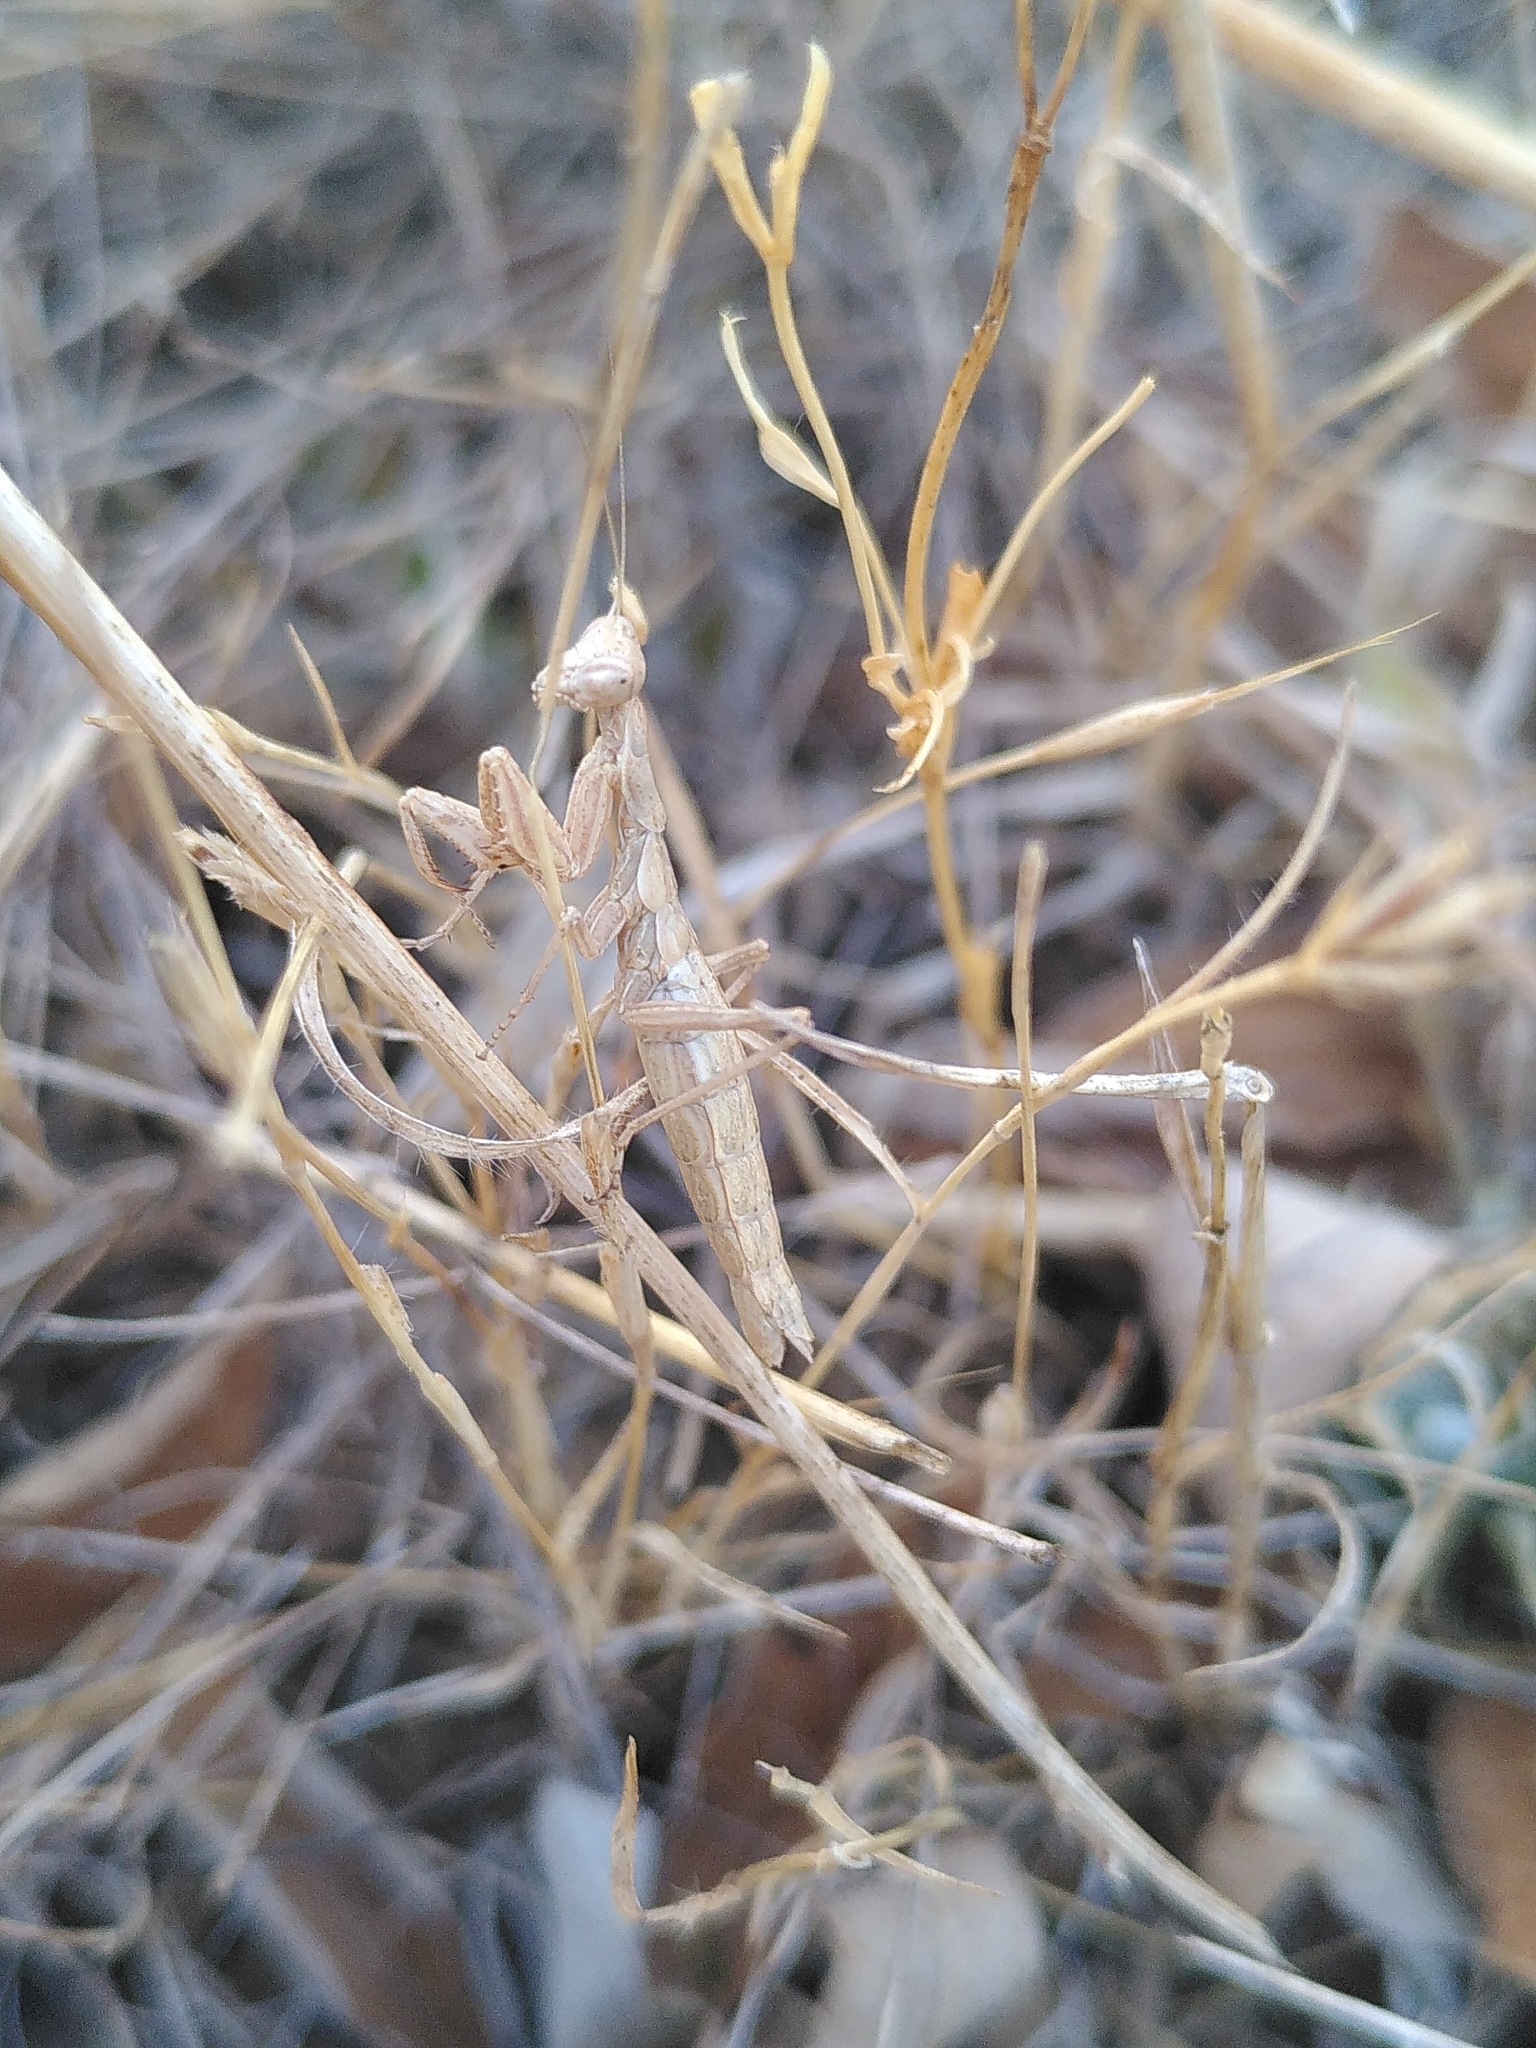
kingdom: Animalia
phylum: Arthropoda
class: Insecta
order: Mantodea
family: Amelidae
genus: Ameles
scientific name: Ameles decolor
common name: Dwarf mantis
